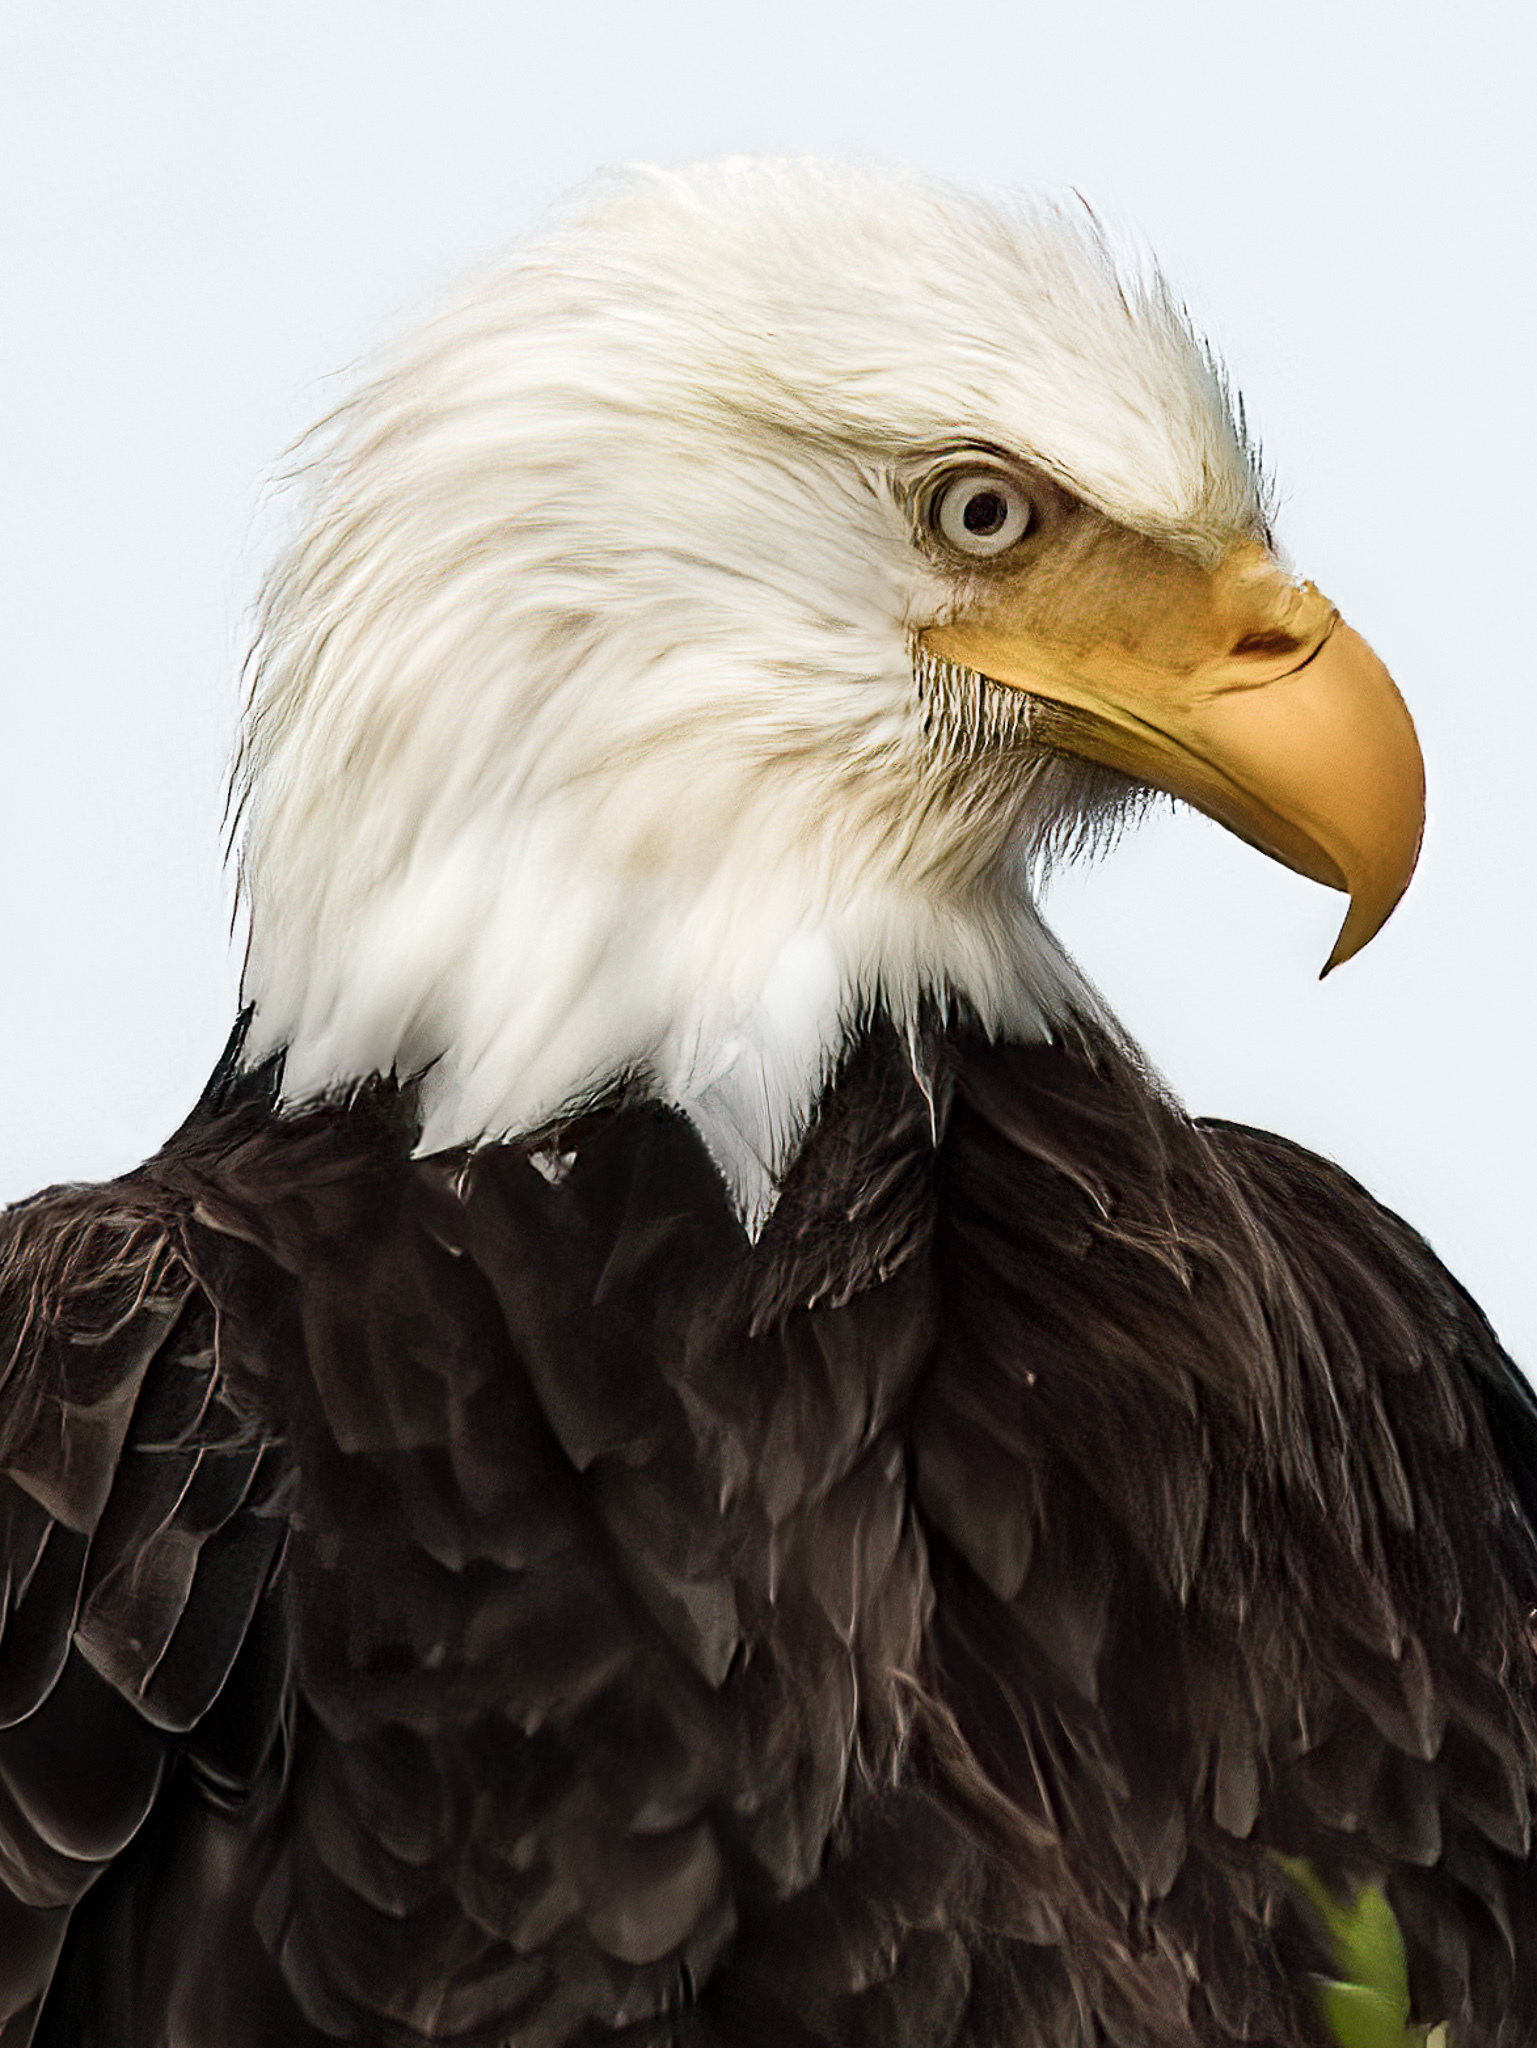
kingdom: Animalia
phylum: Chordata
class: Aves
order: Accipitriformes
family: Accipitridae
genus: Haliaeetus
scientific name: Haliaeetus leucocephalus
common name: Bald eagle
